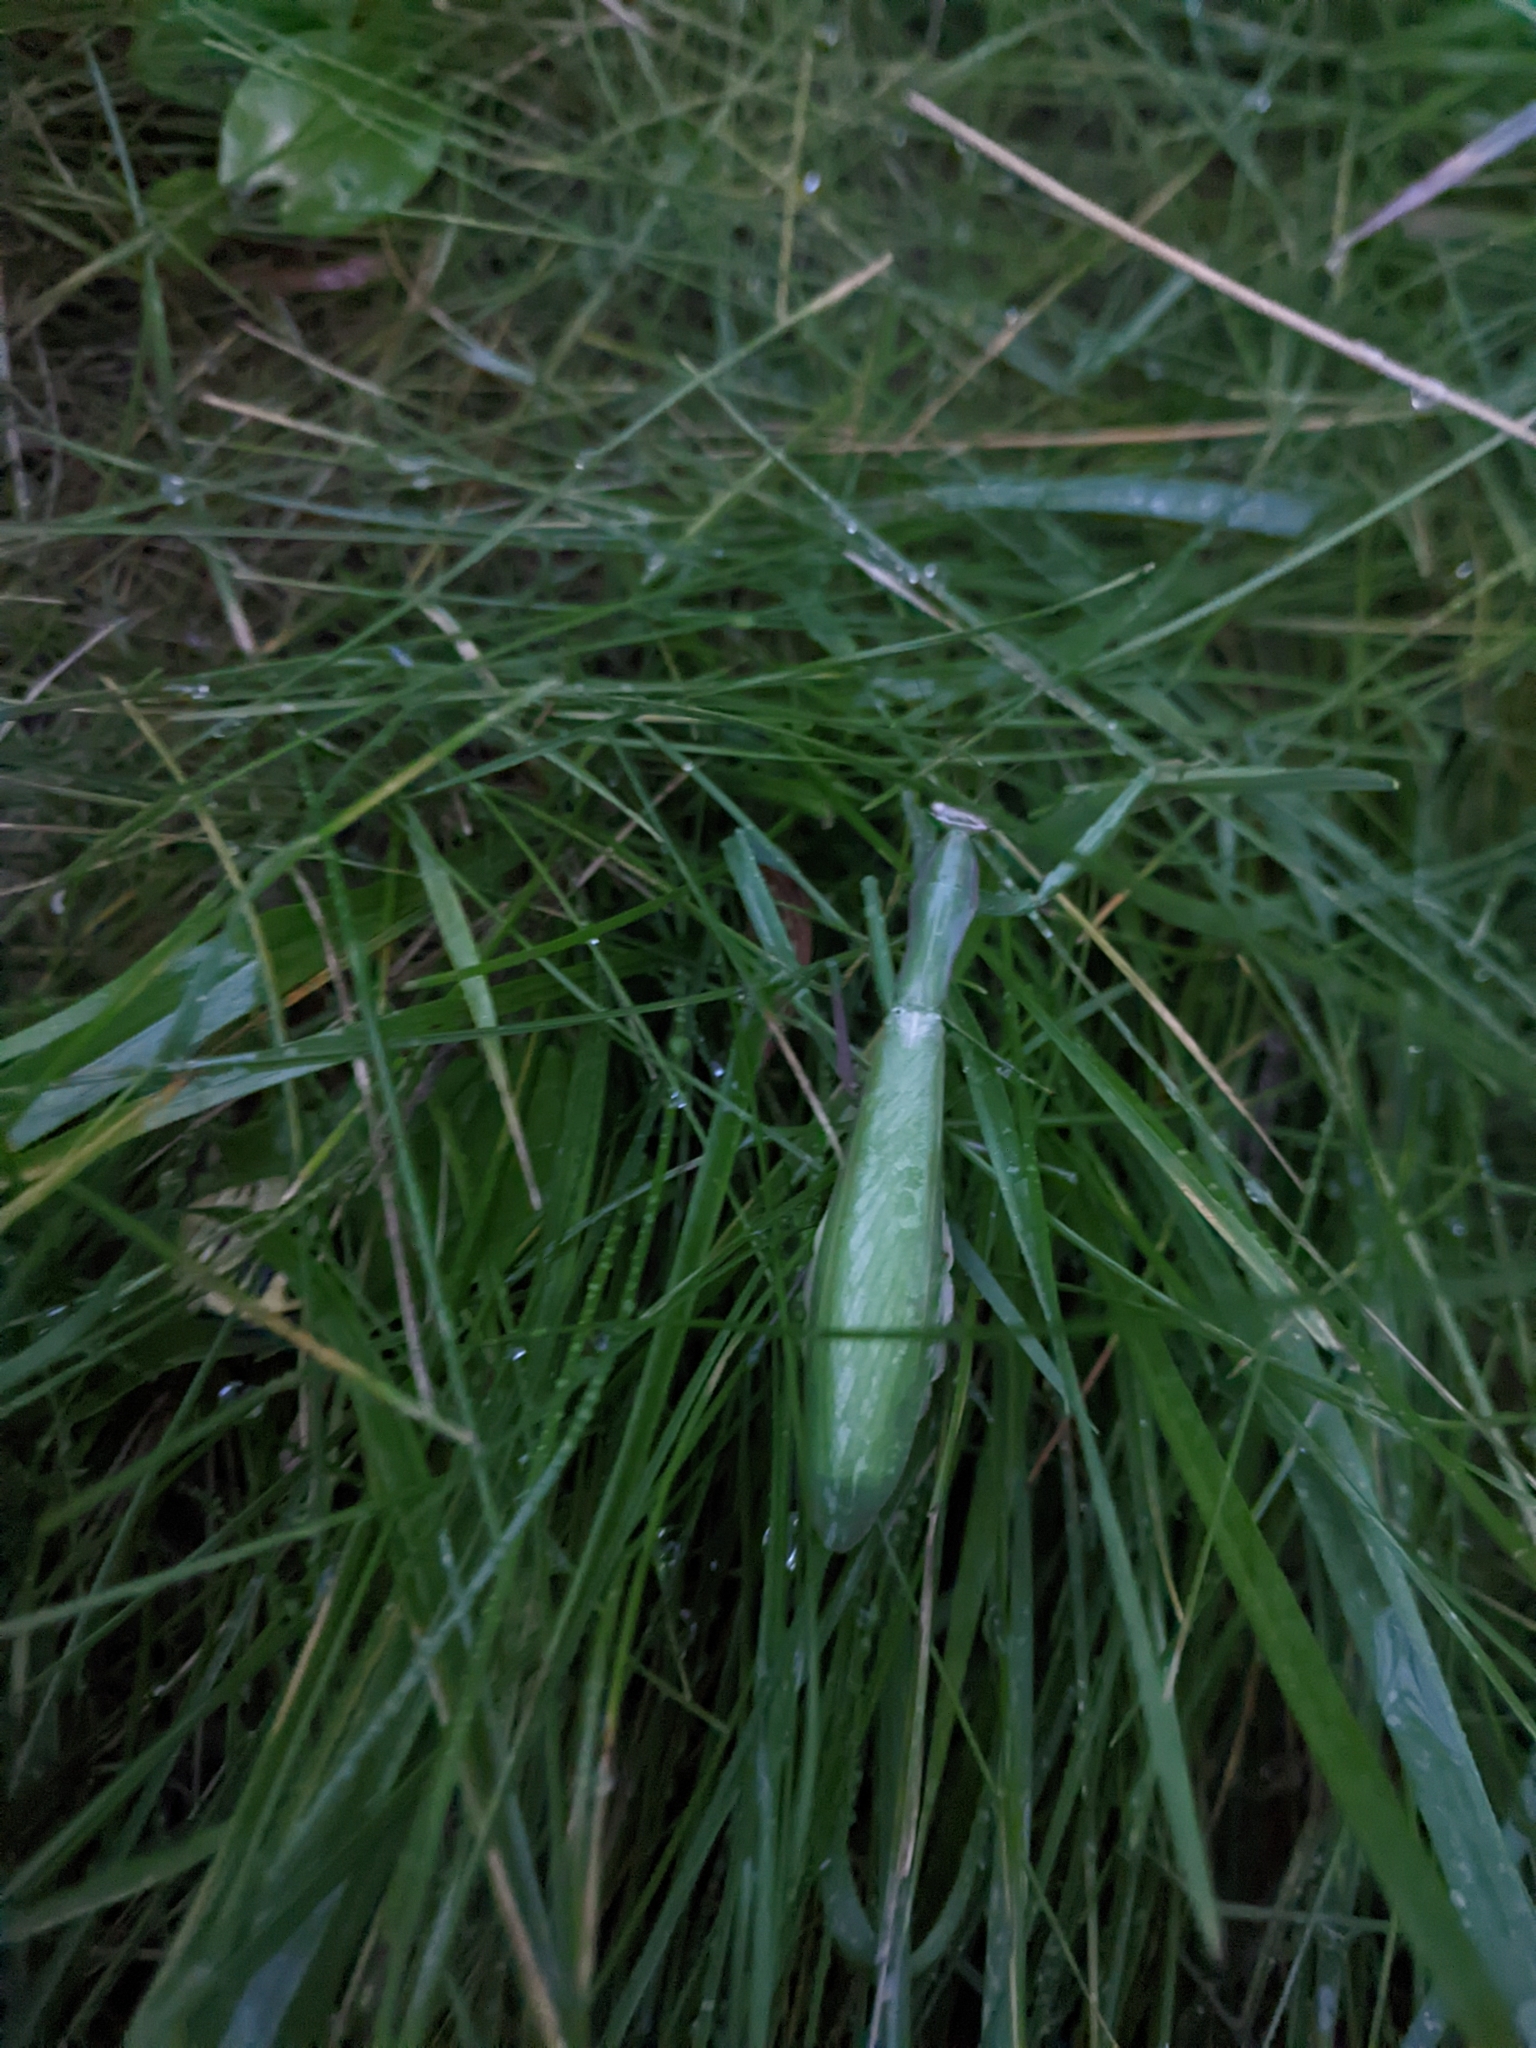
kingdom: Animalia
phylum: Arthropoda
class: Insecta
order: Mantodea
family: Mantidae
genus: Mantis
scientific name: Mantis religiosa
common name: Praying mantis
